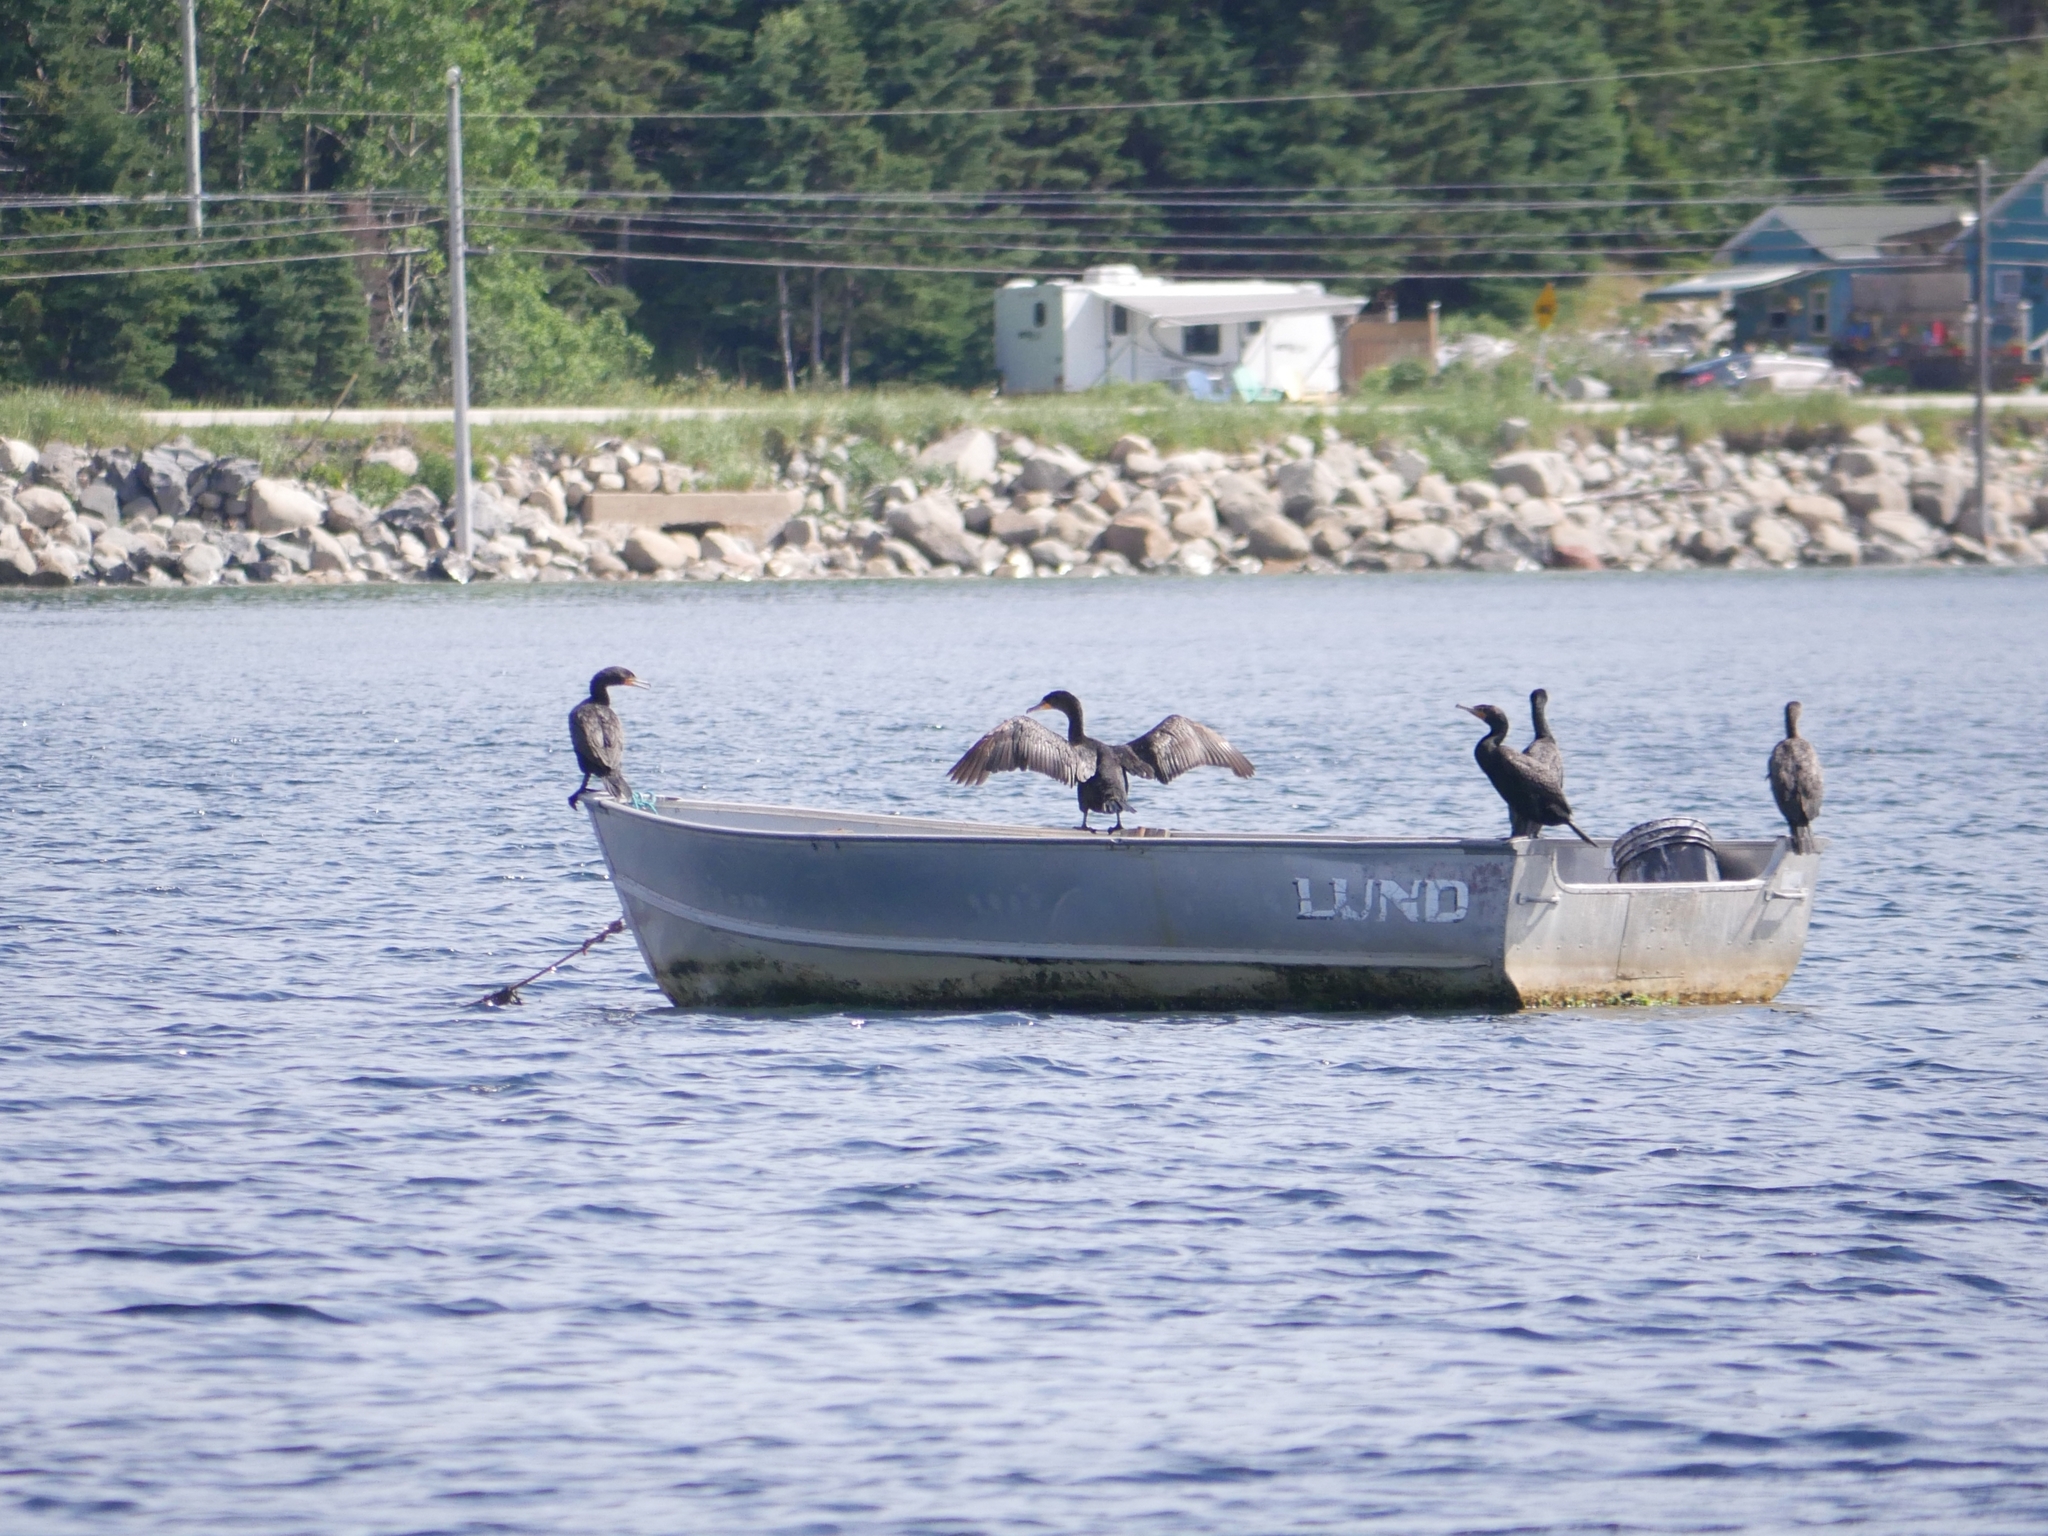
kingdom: Animalia
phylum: Chordata
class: Aves
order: Suliformes
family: Phalacrocoracidae
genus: Phalacrocorax
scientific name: Phalacrocorax auritus
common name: Double-crested cormorant
